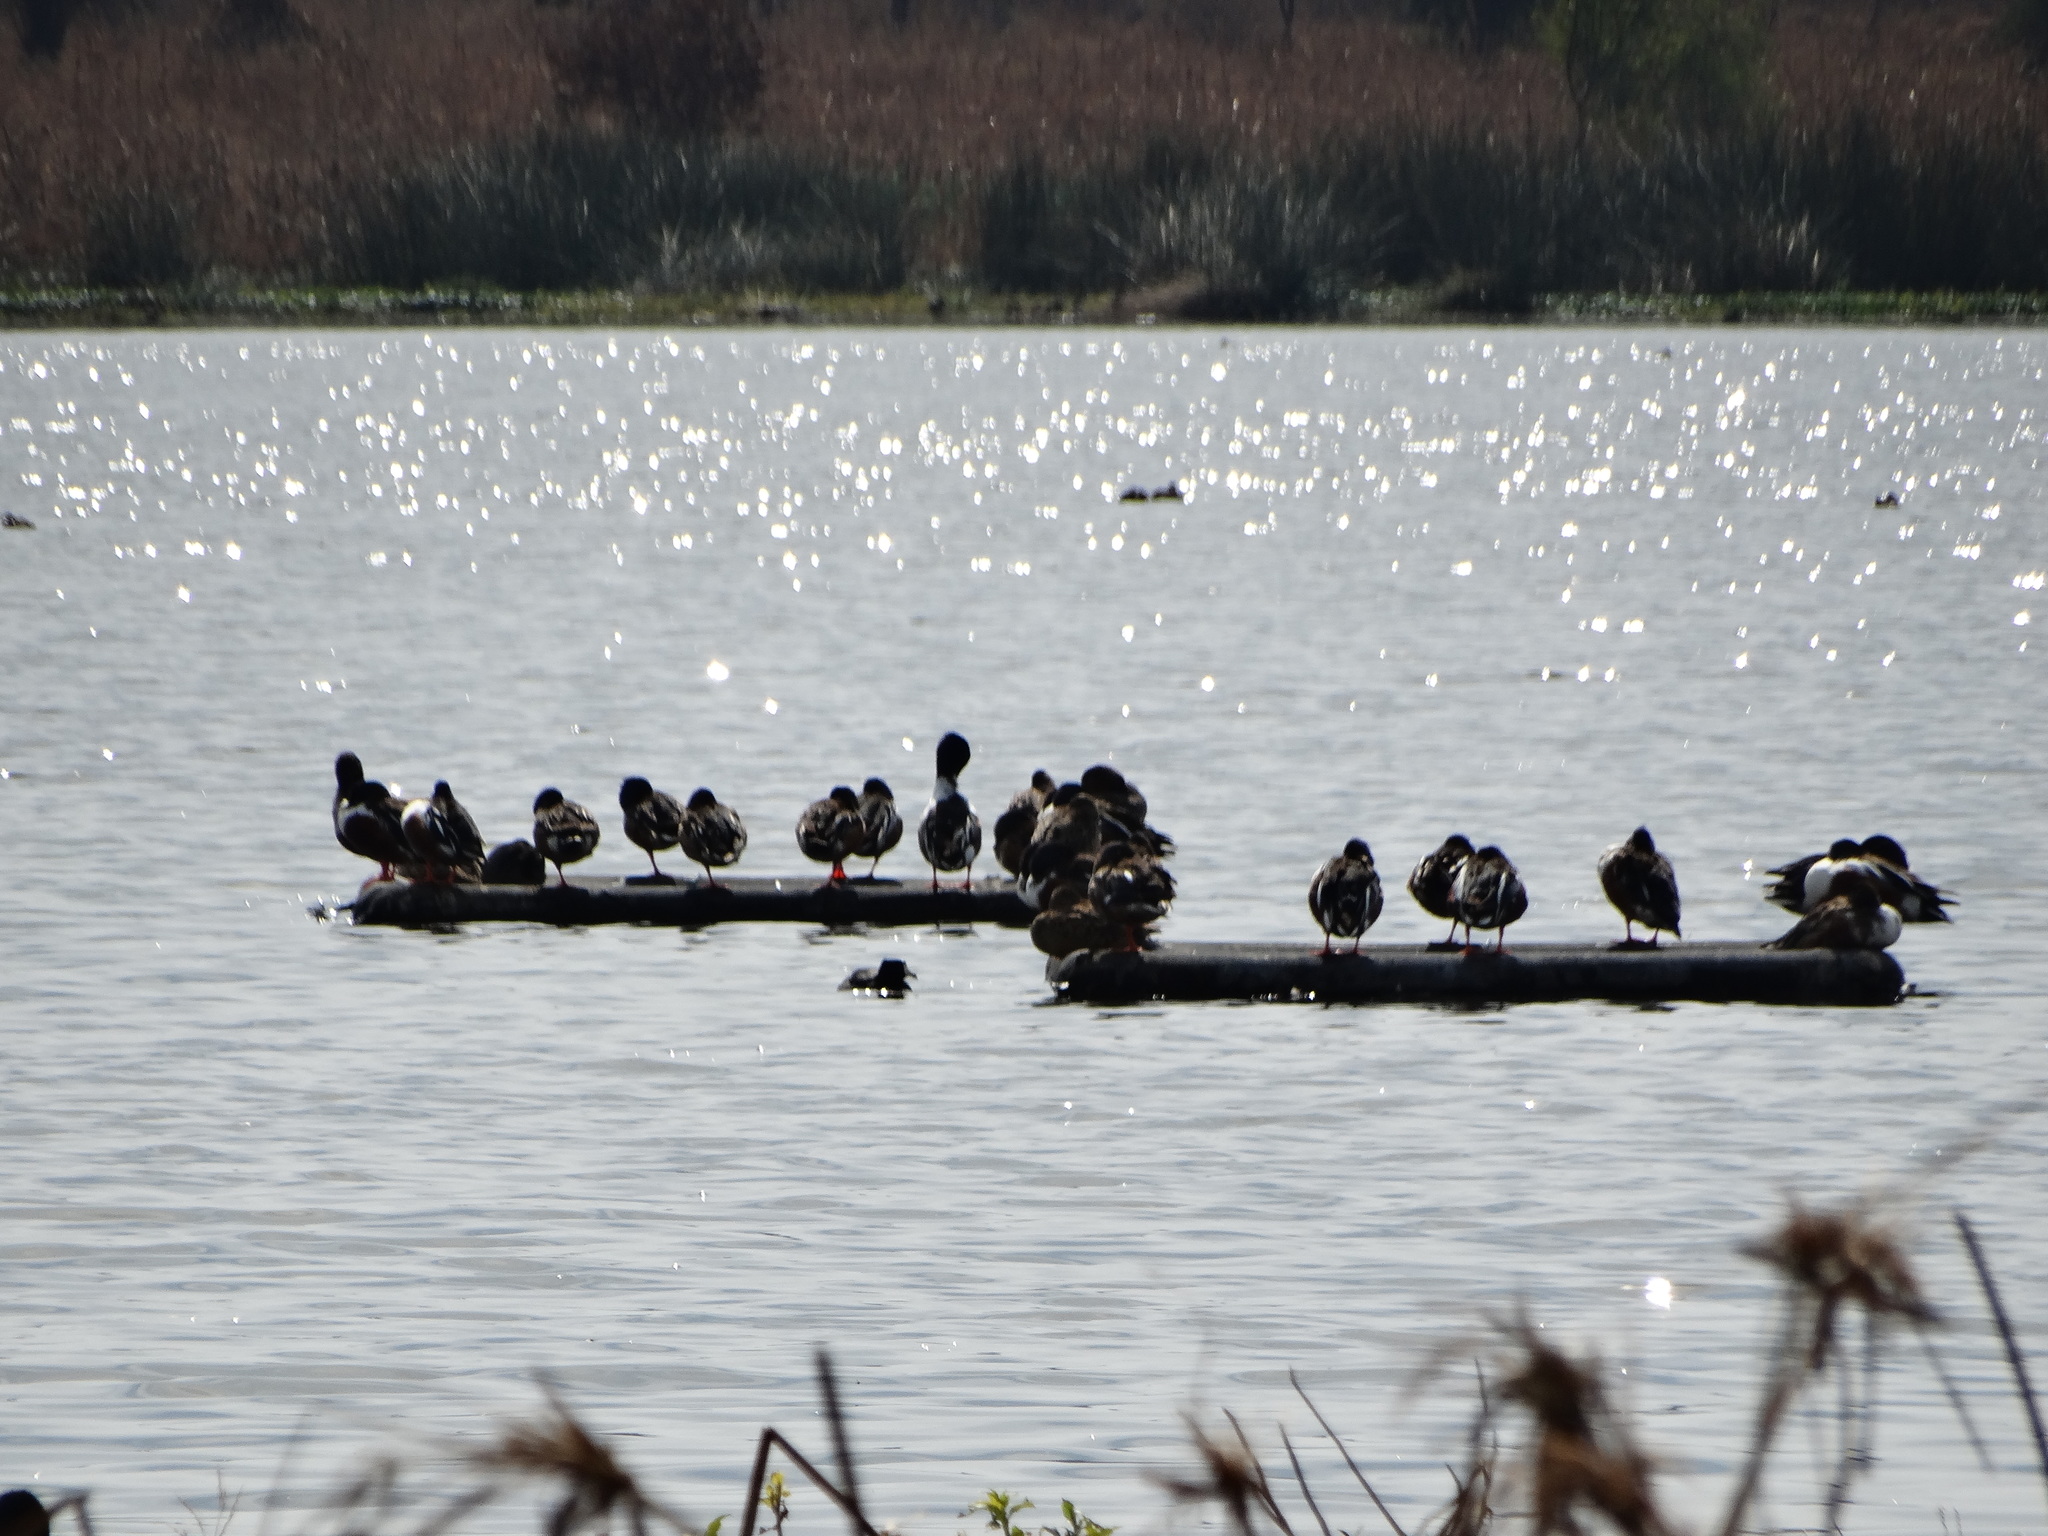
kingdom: Animalia
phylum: Chordata
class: Aves
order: Anseriformes
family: Anatidae
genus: Spatula
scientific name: Spatula clypeata
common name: Northern shoveler
